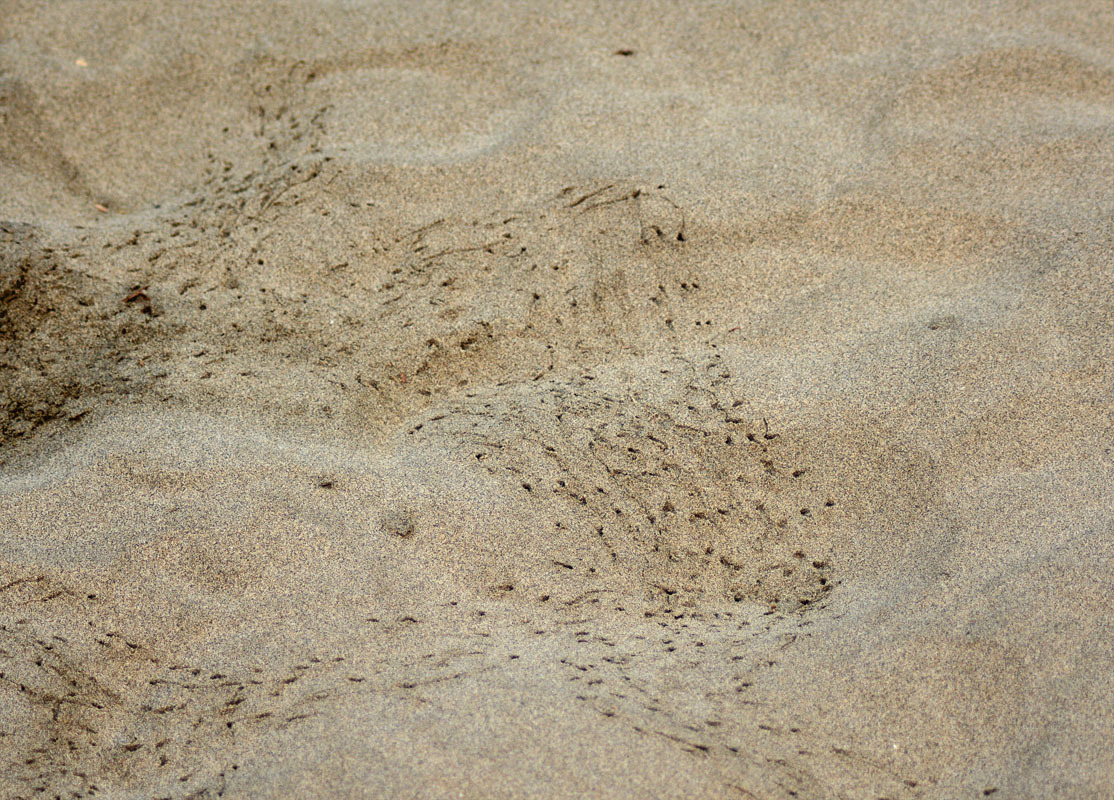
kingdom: Animalia
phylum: Arthropoda
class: Malacostraca
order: Decapoda
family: Ocypodidae
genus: Ocypode
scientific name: Ocypode occidentalis
